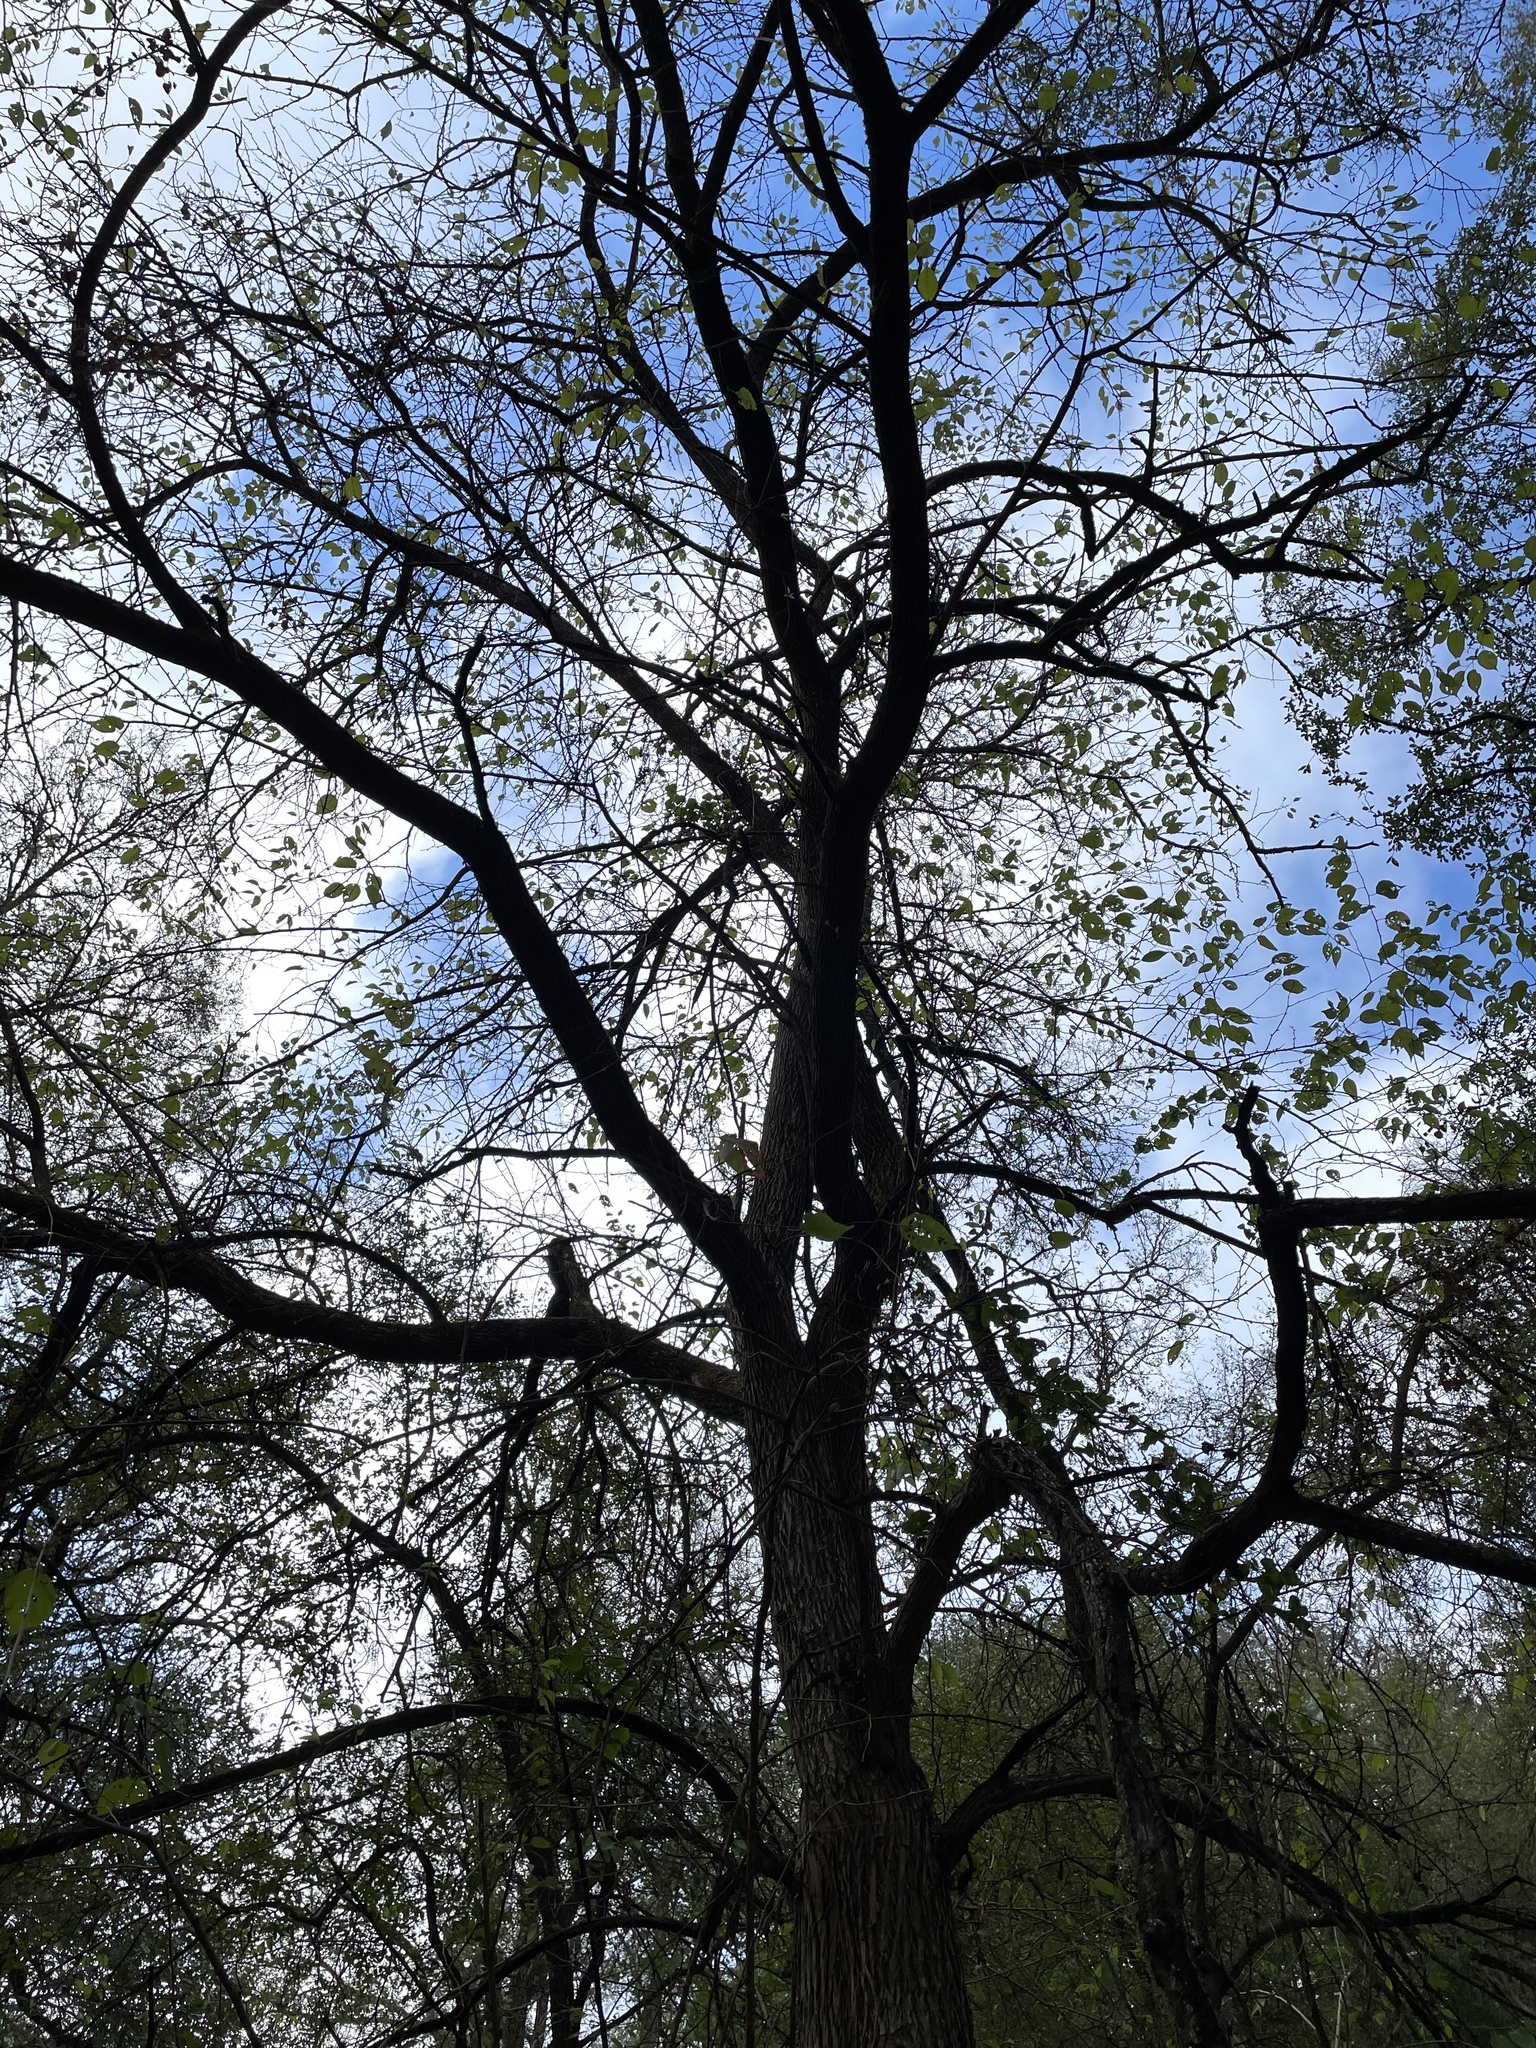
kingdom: Plantae
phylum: Tracheophyta
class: Magnoliopsida
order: Rosales
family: Moraceae
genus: Maclura
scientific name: Maclura pomifera
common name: Osage-orange
